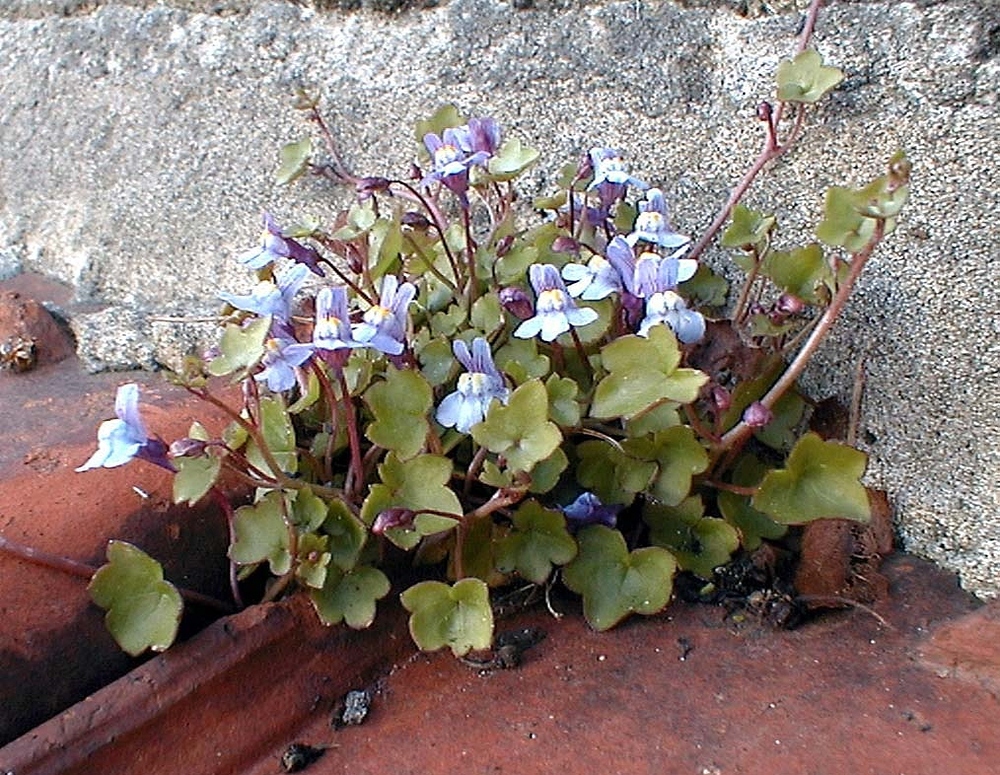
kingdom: Plantae
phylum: Tracheophyta
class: Magnoliopsida
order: Lamiales
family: Plantaginaceae
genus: Cymbalaria
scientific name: Cymbalaria muralis
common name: Ivy-leaved toadflax
